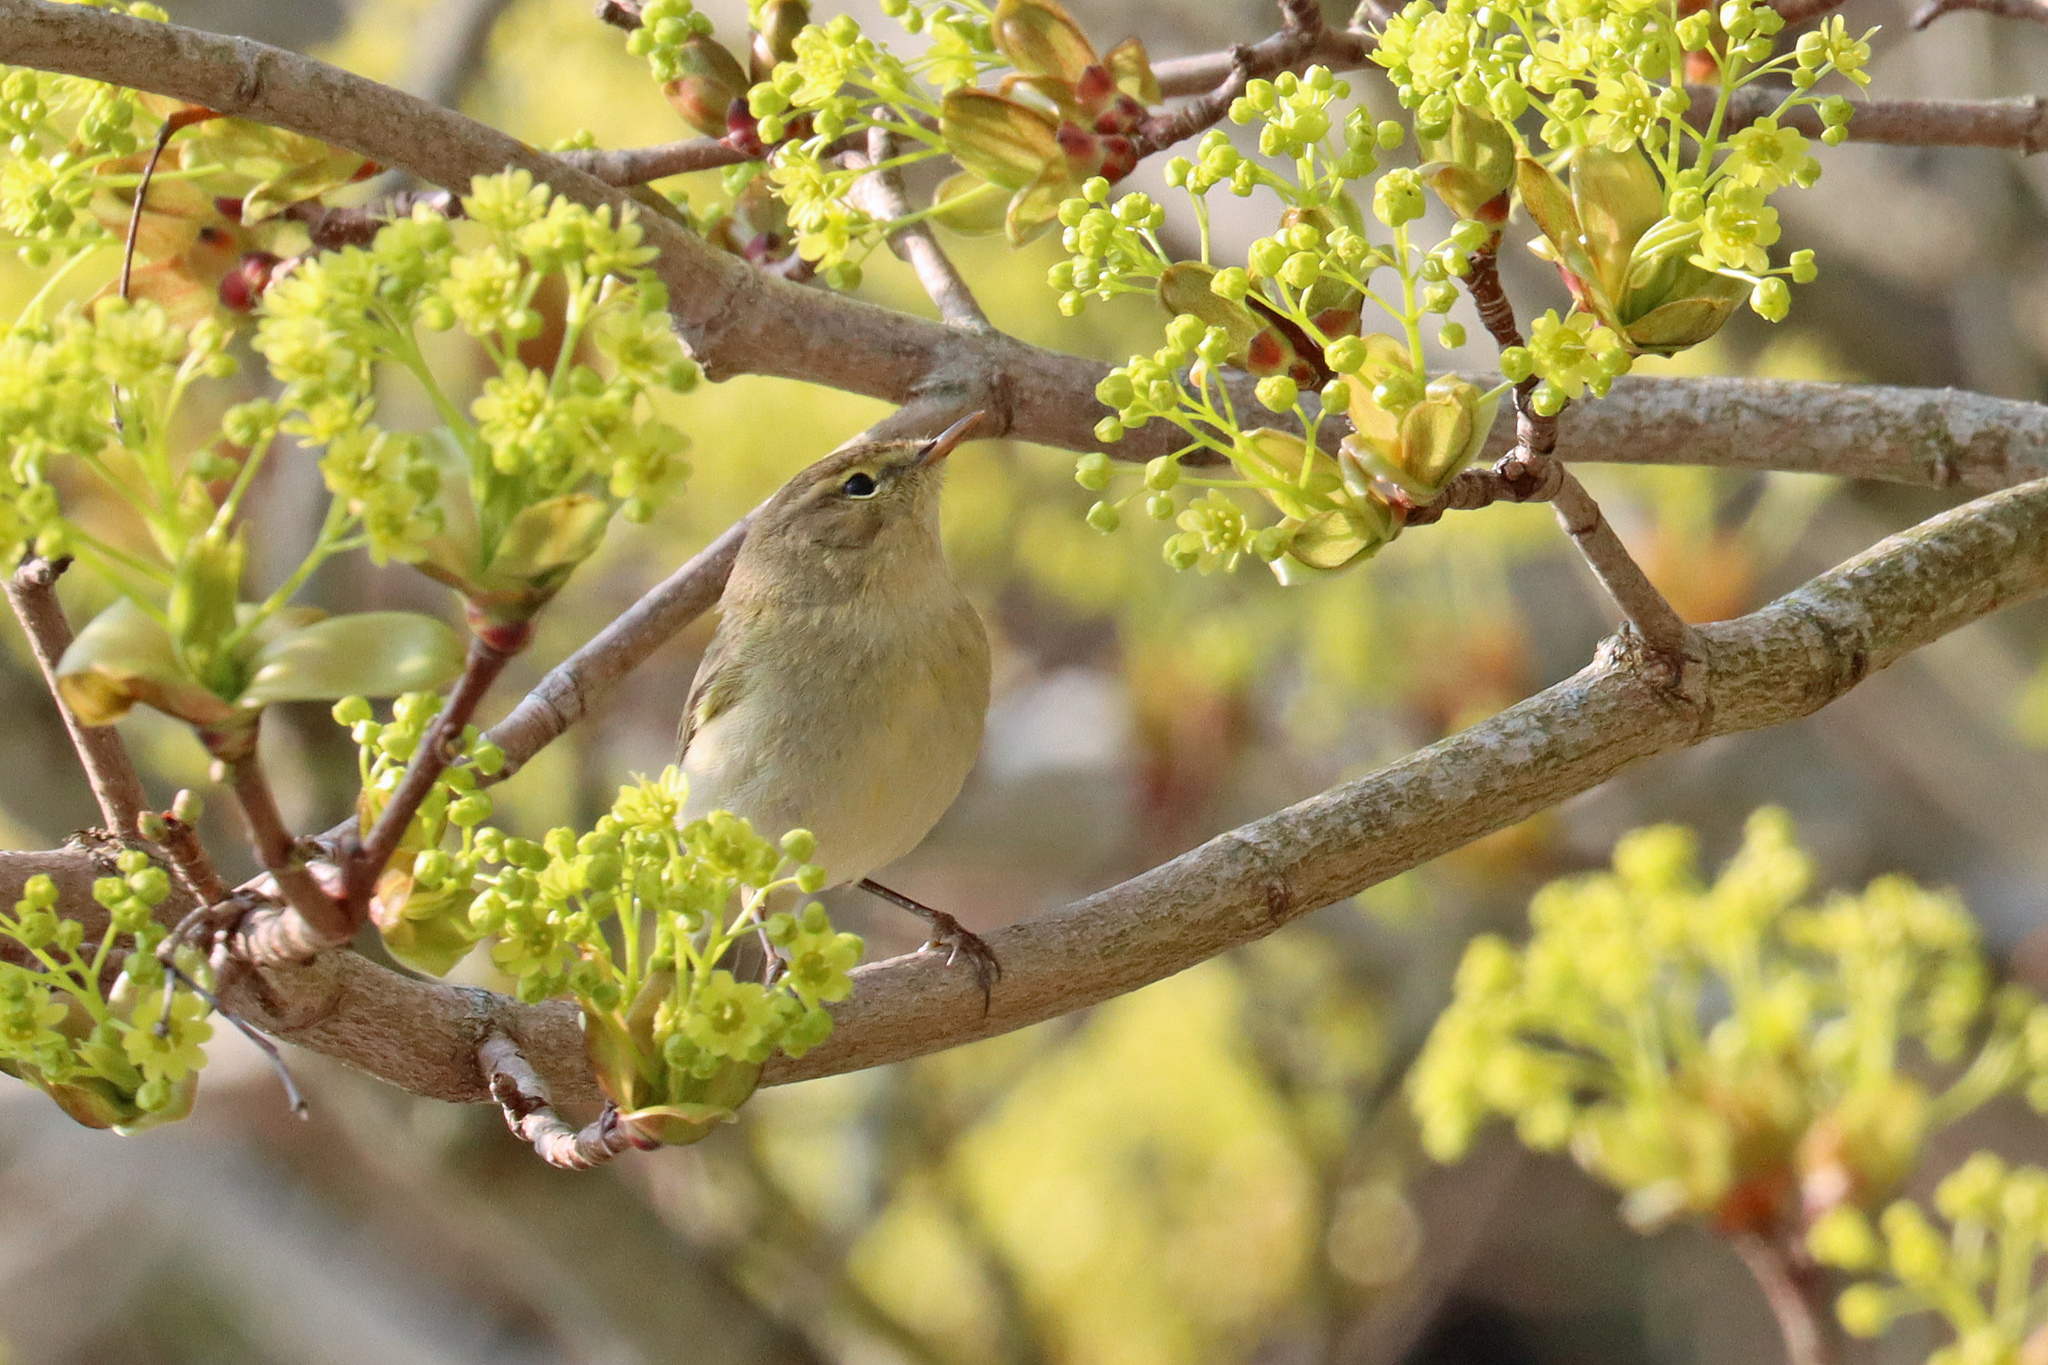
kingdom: Animalia
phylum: Chordata
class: Aves
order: Passeriformes
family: Phylloscopidae
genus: Phylloscopus
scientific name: Phylloscopus collybita
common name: Common chiffchaff
